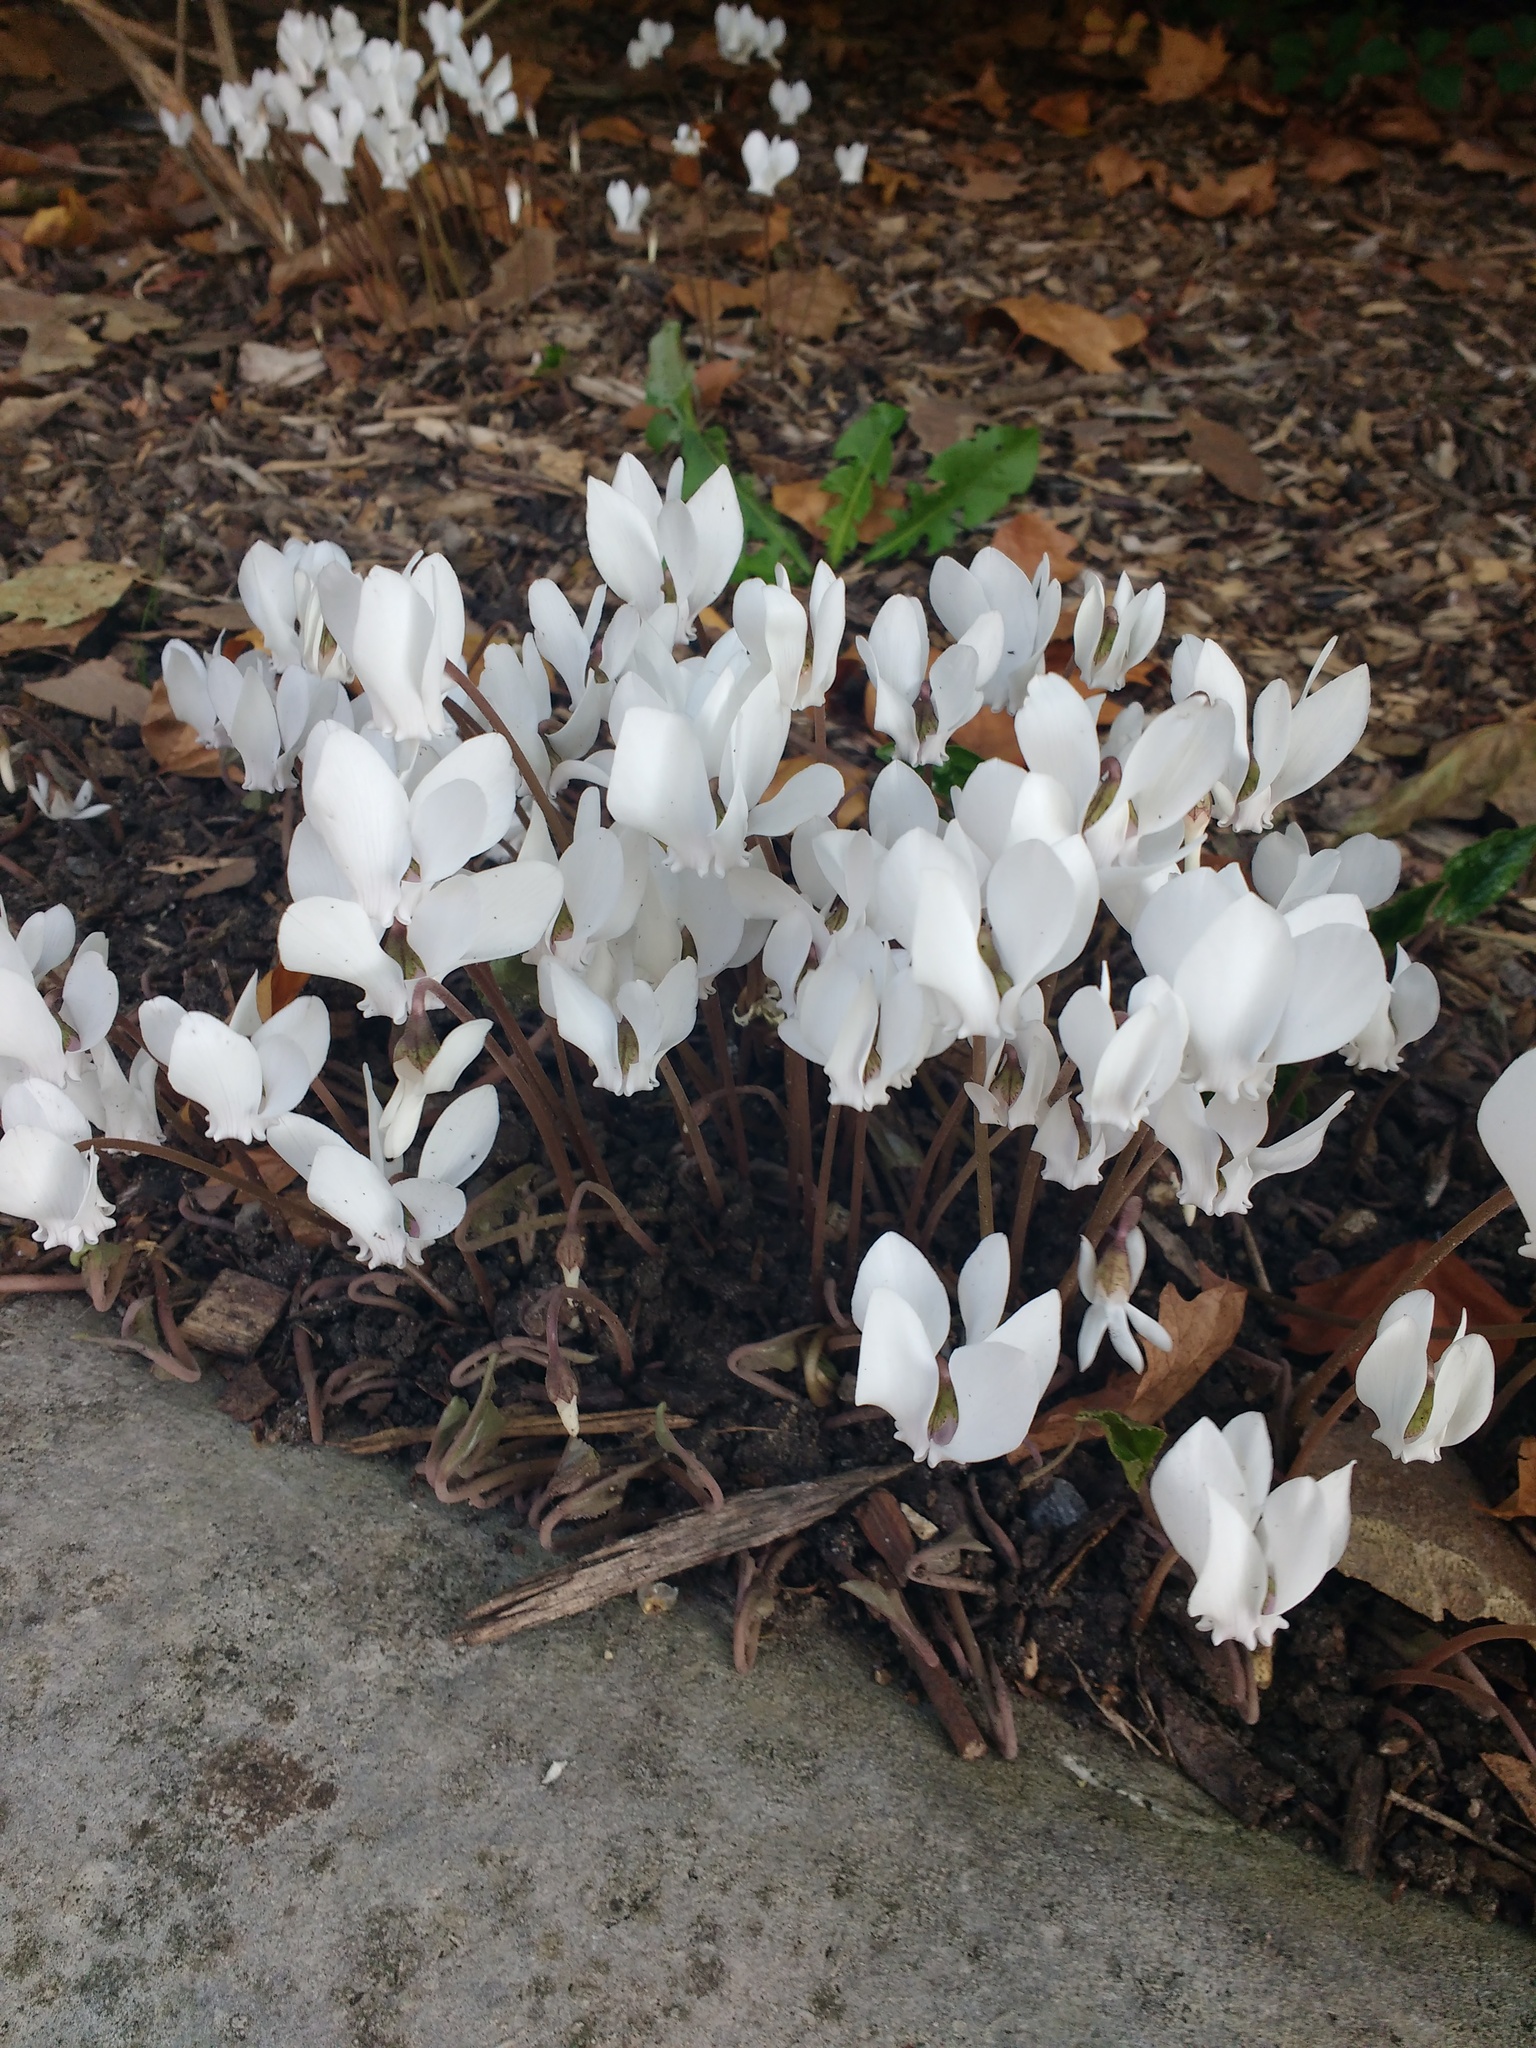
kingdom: Plantae
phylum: Tracheophyta
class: Magnoliopsida
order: Ericales
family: Primulaceae
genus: Cyclamen
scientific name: Cyclamen hederifolium
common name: Sowbread
